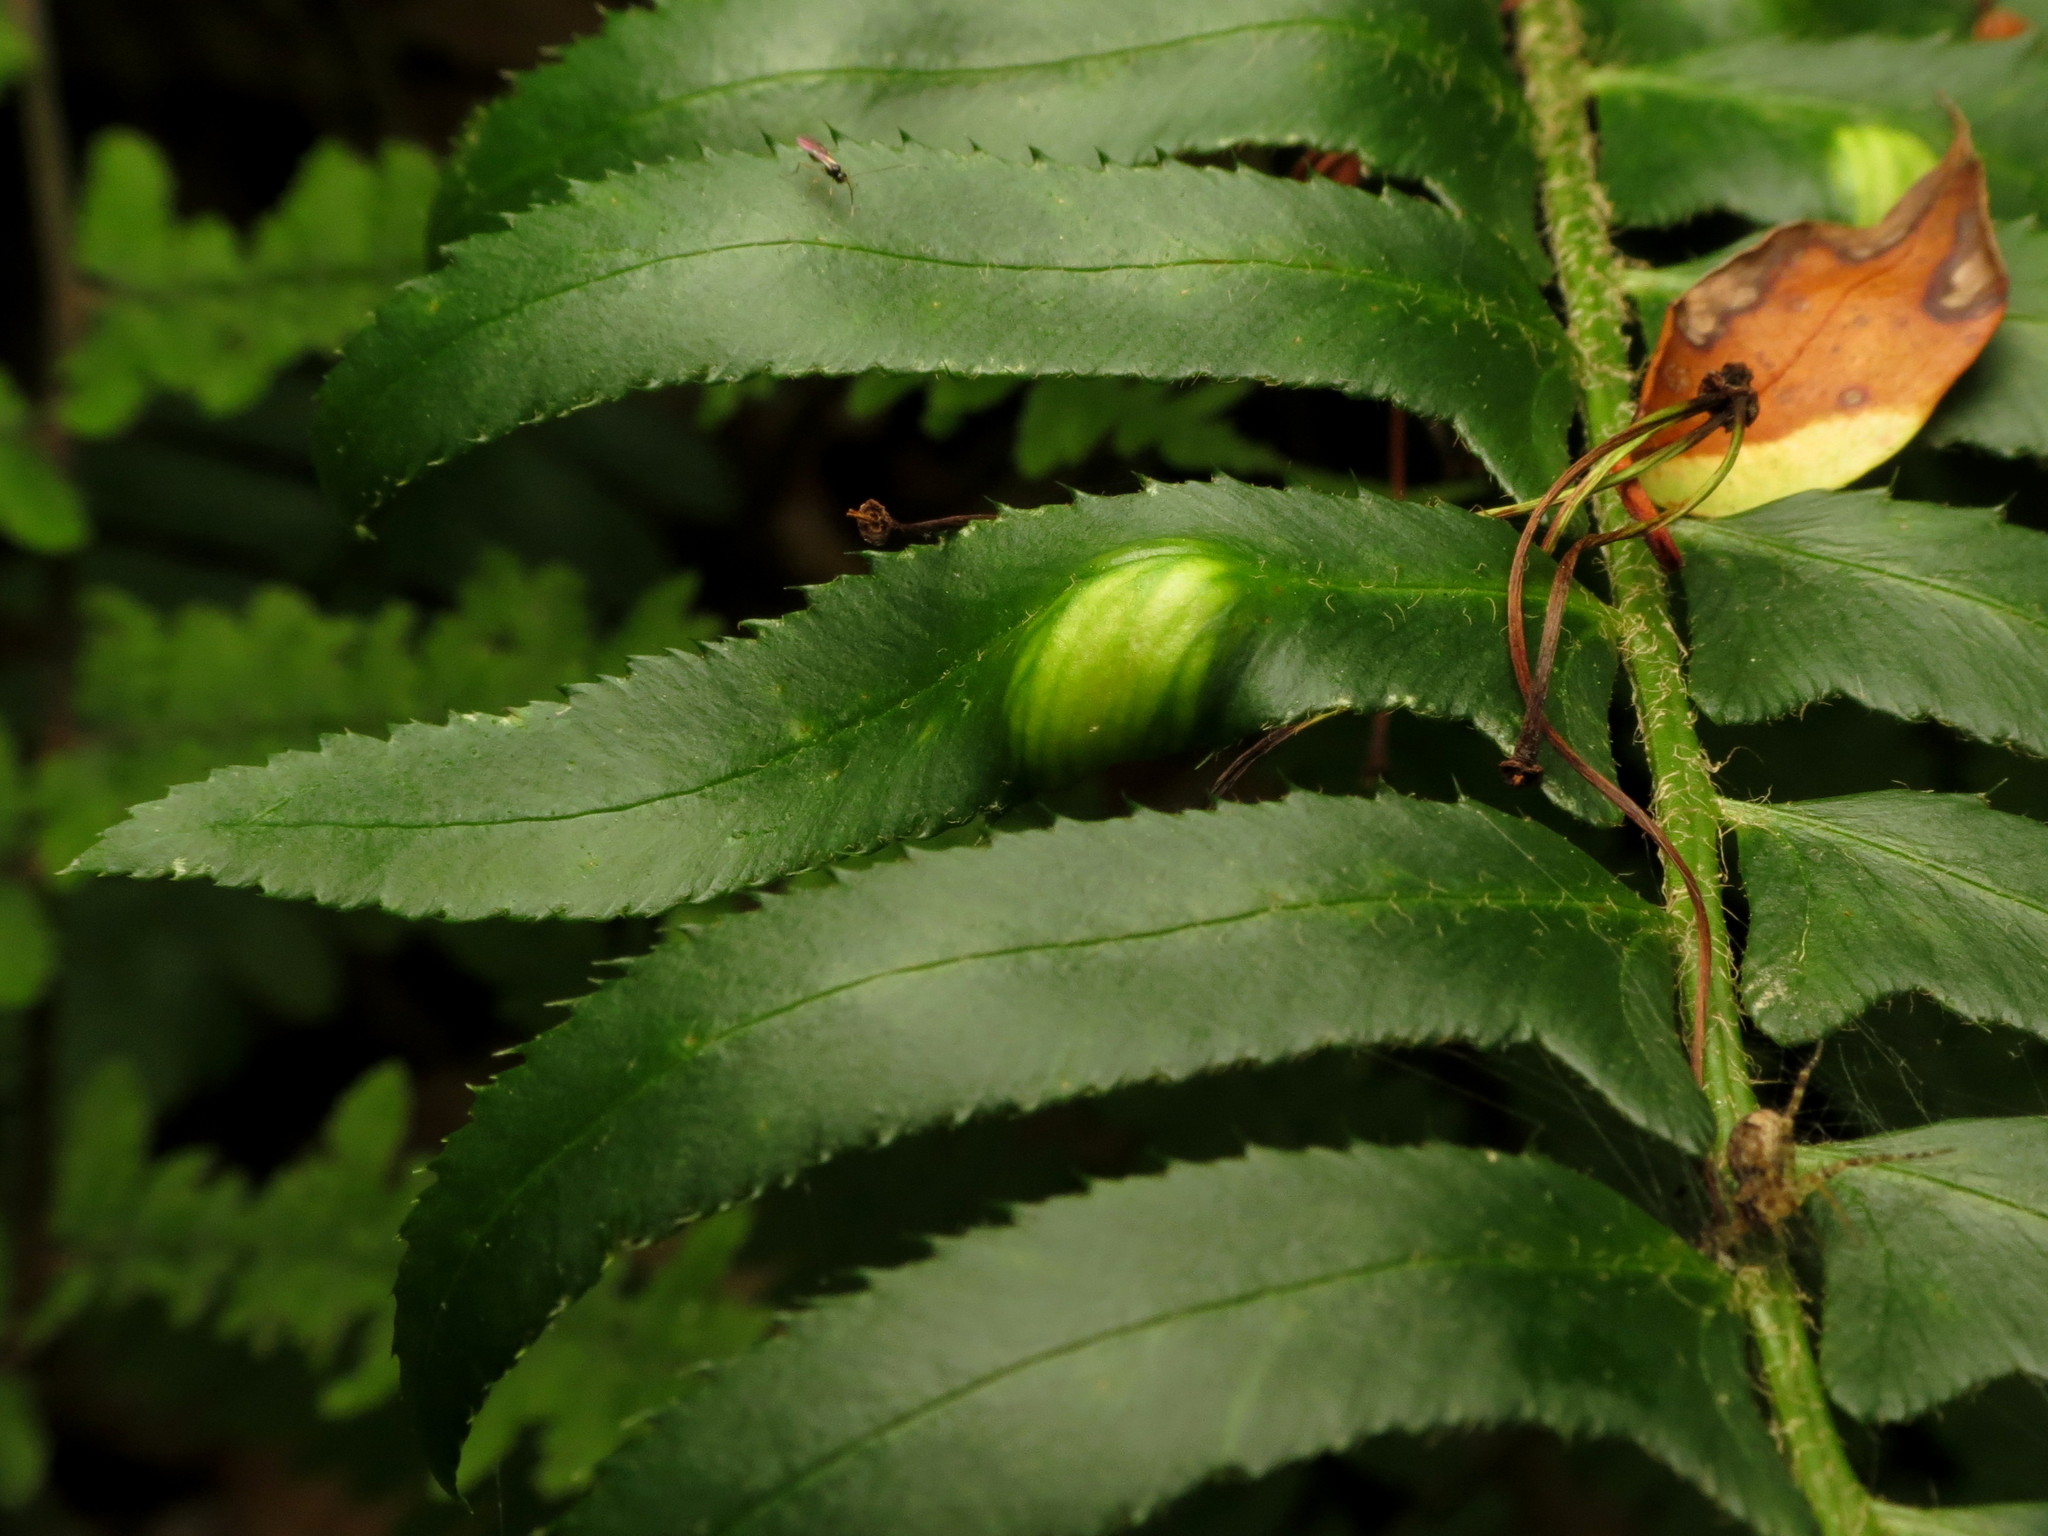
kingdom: Fungi
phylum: Ascomycota
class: Taphrinomycetes
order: Taphrinales
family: Taphrinaceae
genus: Taphrina
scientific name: Taphrina polystichi
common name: Christmas fern leaf curl
